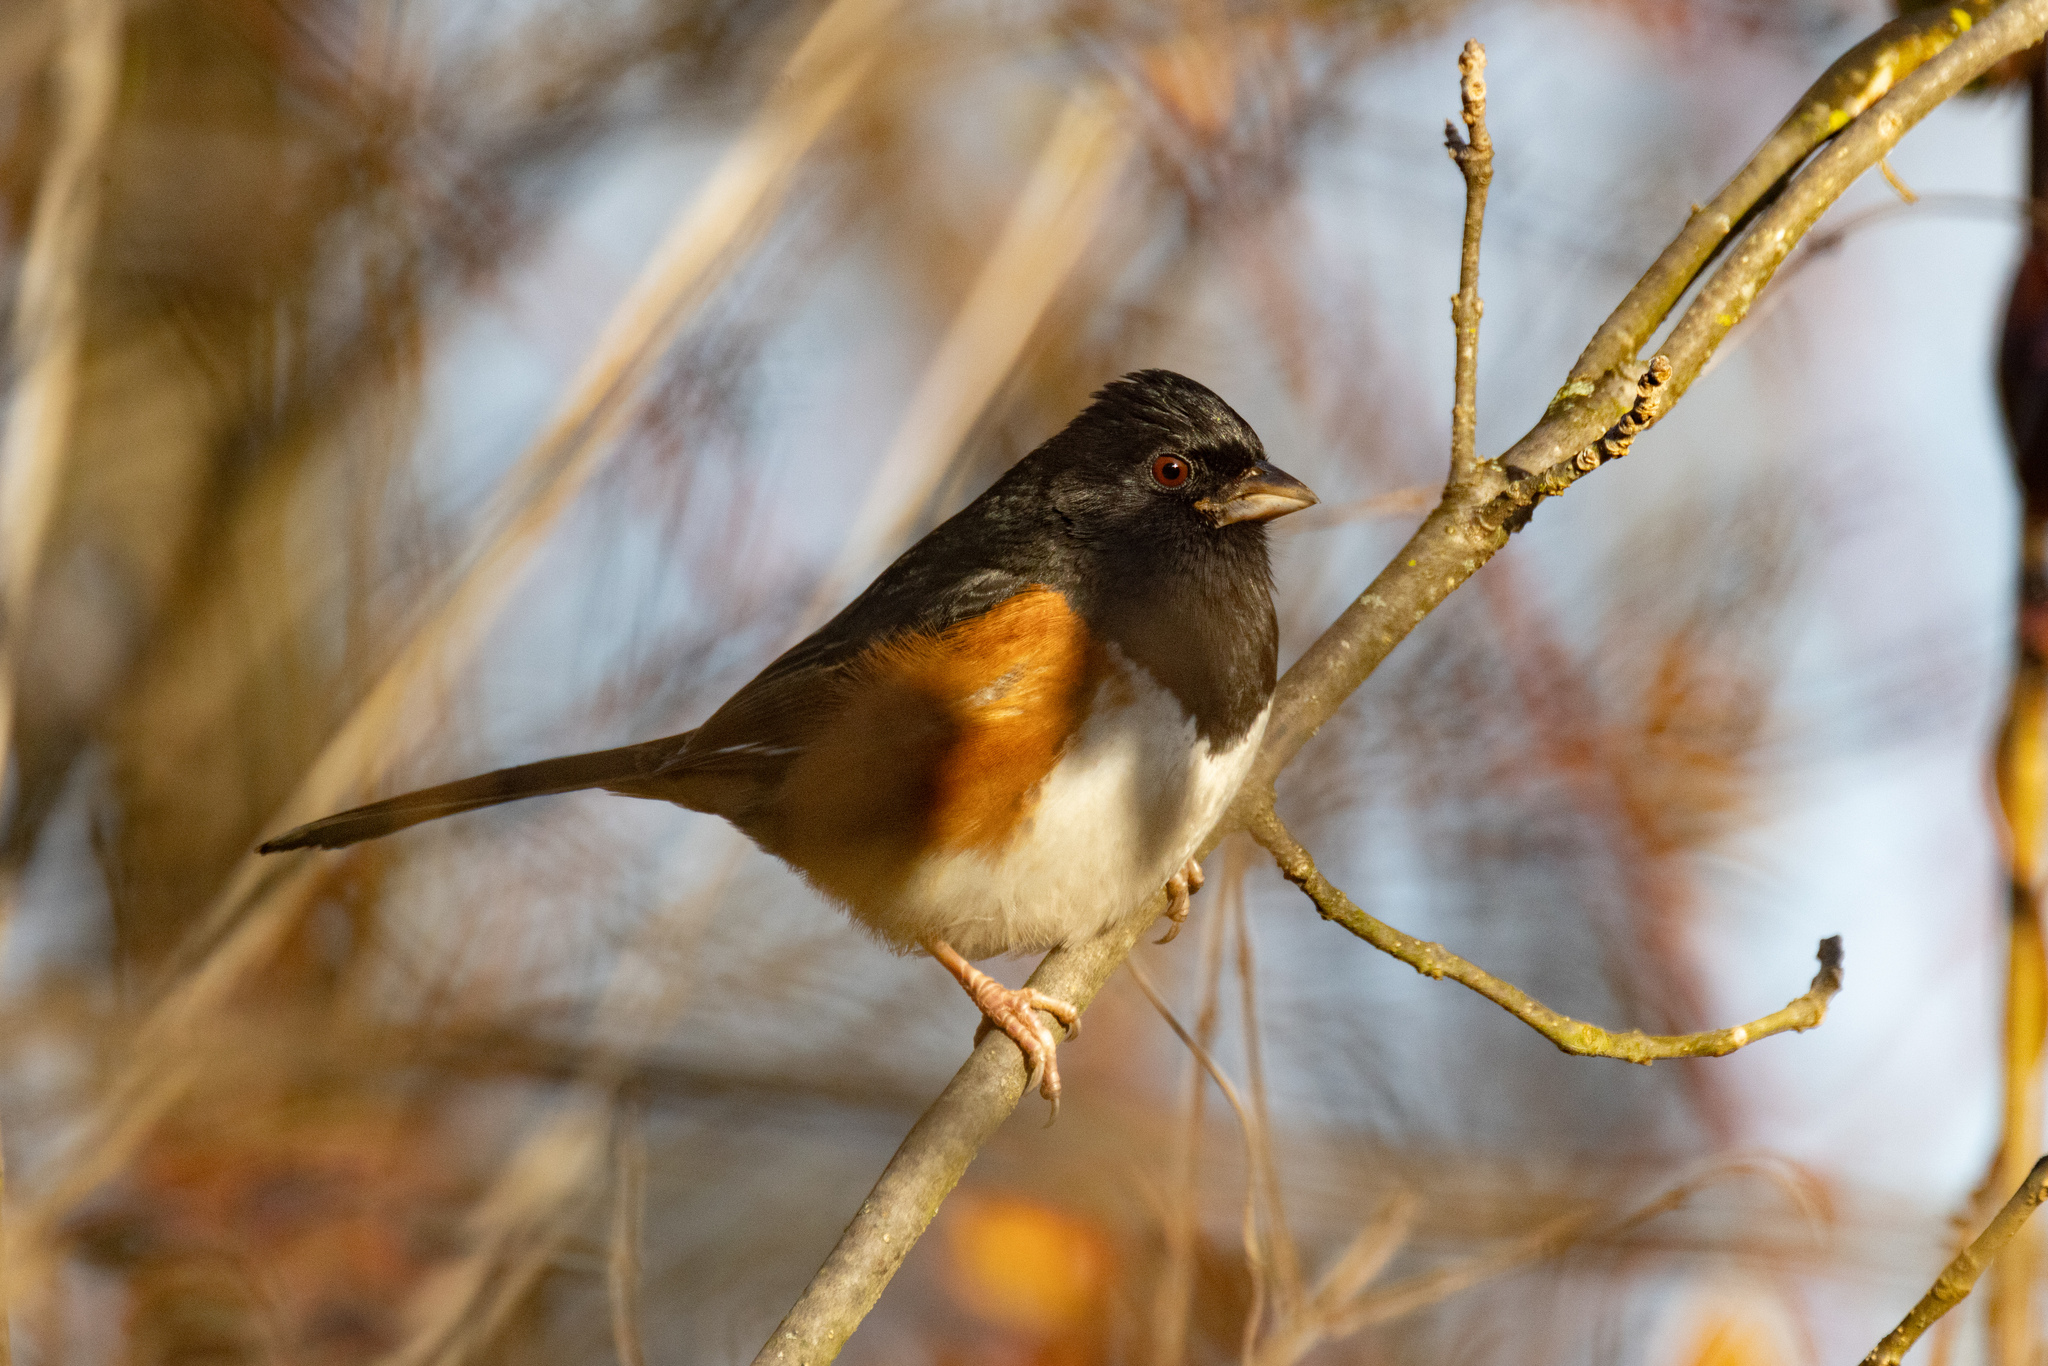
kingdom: Animalia
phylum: Chordata
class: Aves
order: Passeriformes
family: Passerellidae
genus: Pipilo
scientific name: Pipilo erythrophthalmus
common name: Eastern towhee
